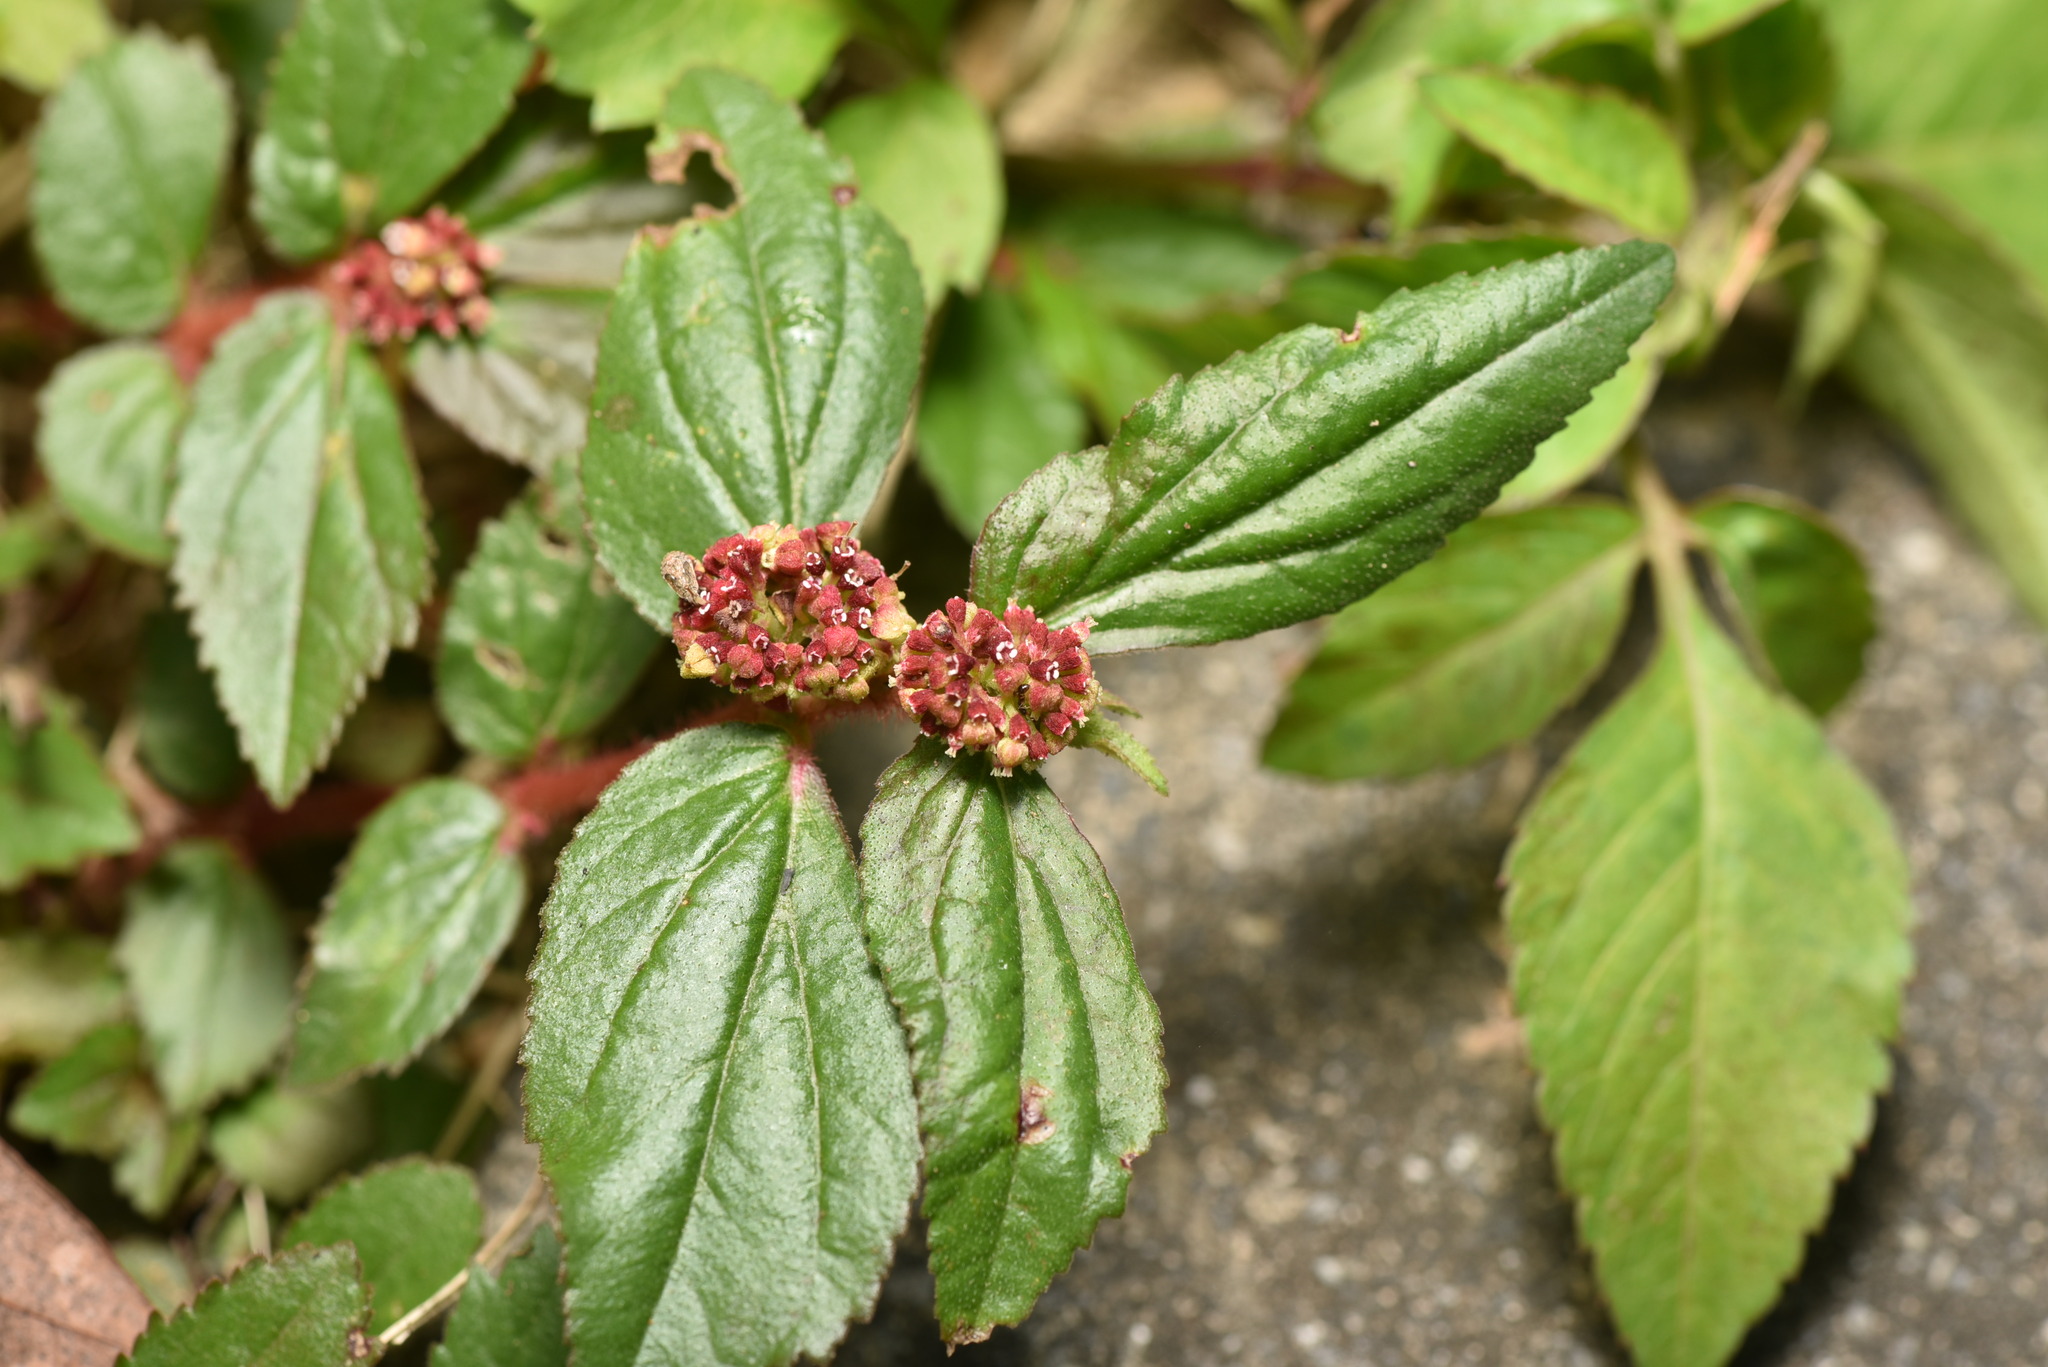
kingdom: Plantae
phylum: Tracheophyta
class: Magnoliopsida
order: Malpighiales
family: Euphorbiaceae
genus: Euphorbia
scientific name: Euphorbia hirta
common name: Pillpod sandmat
